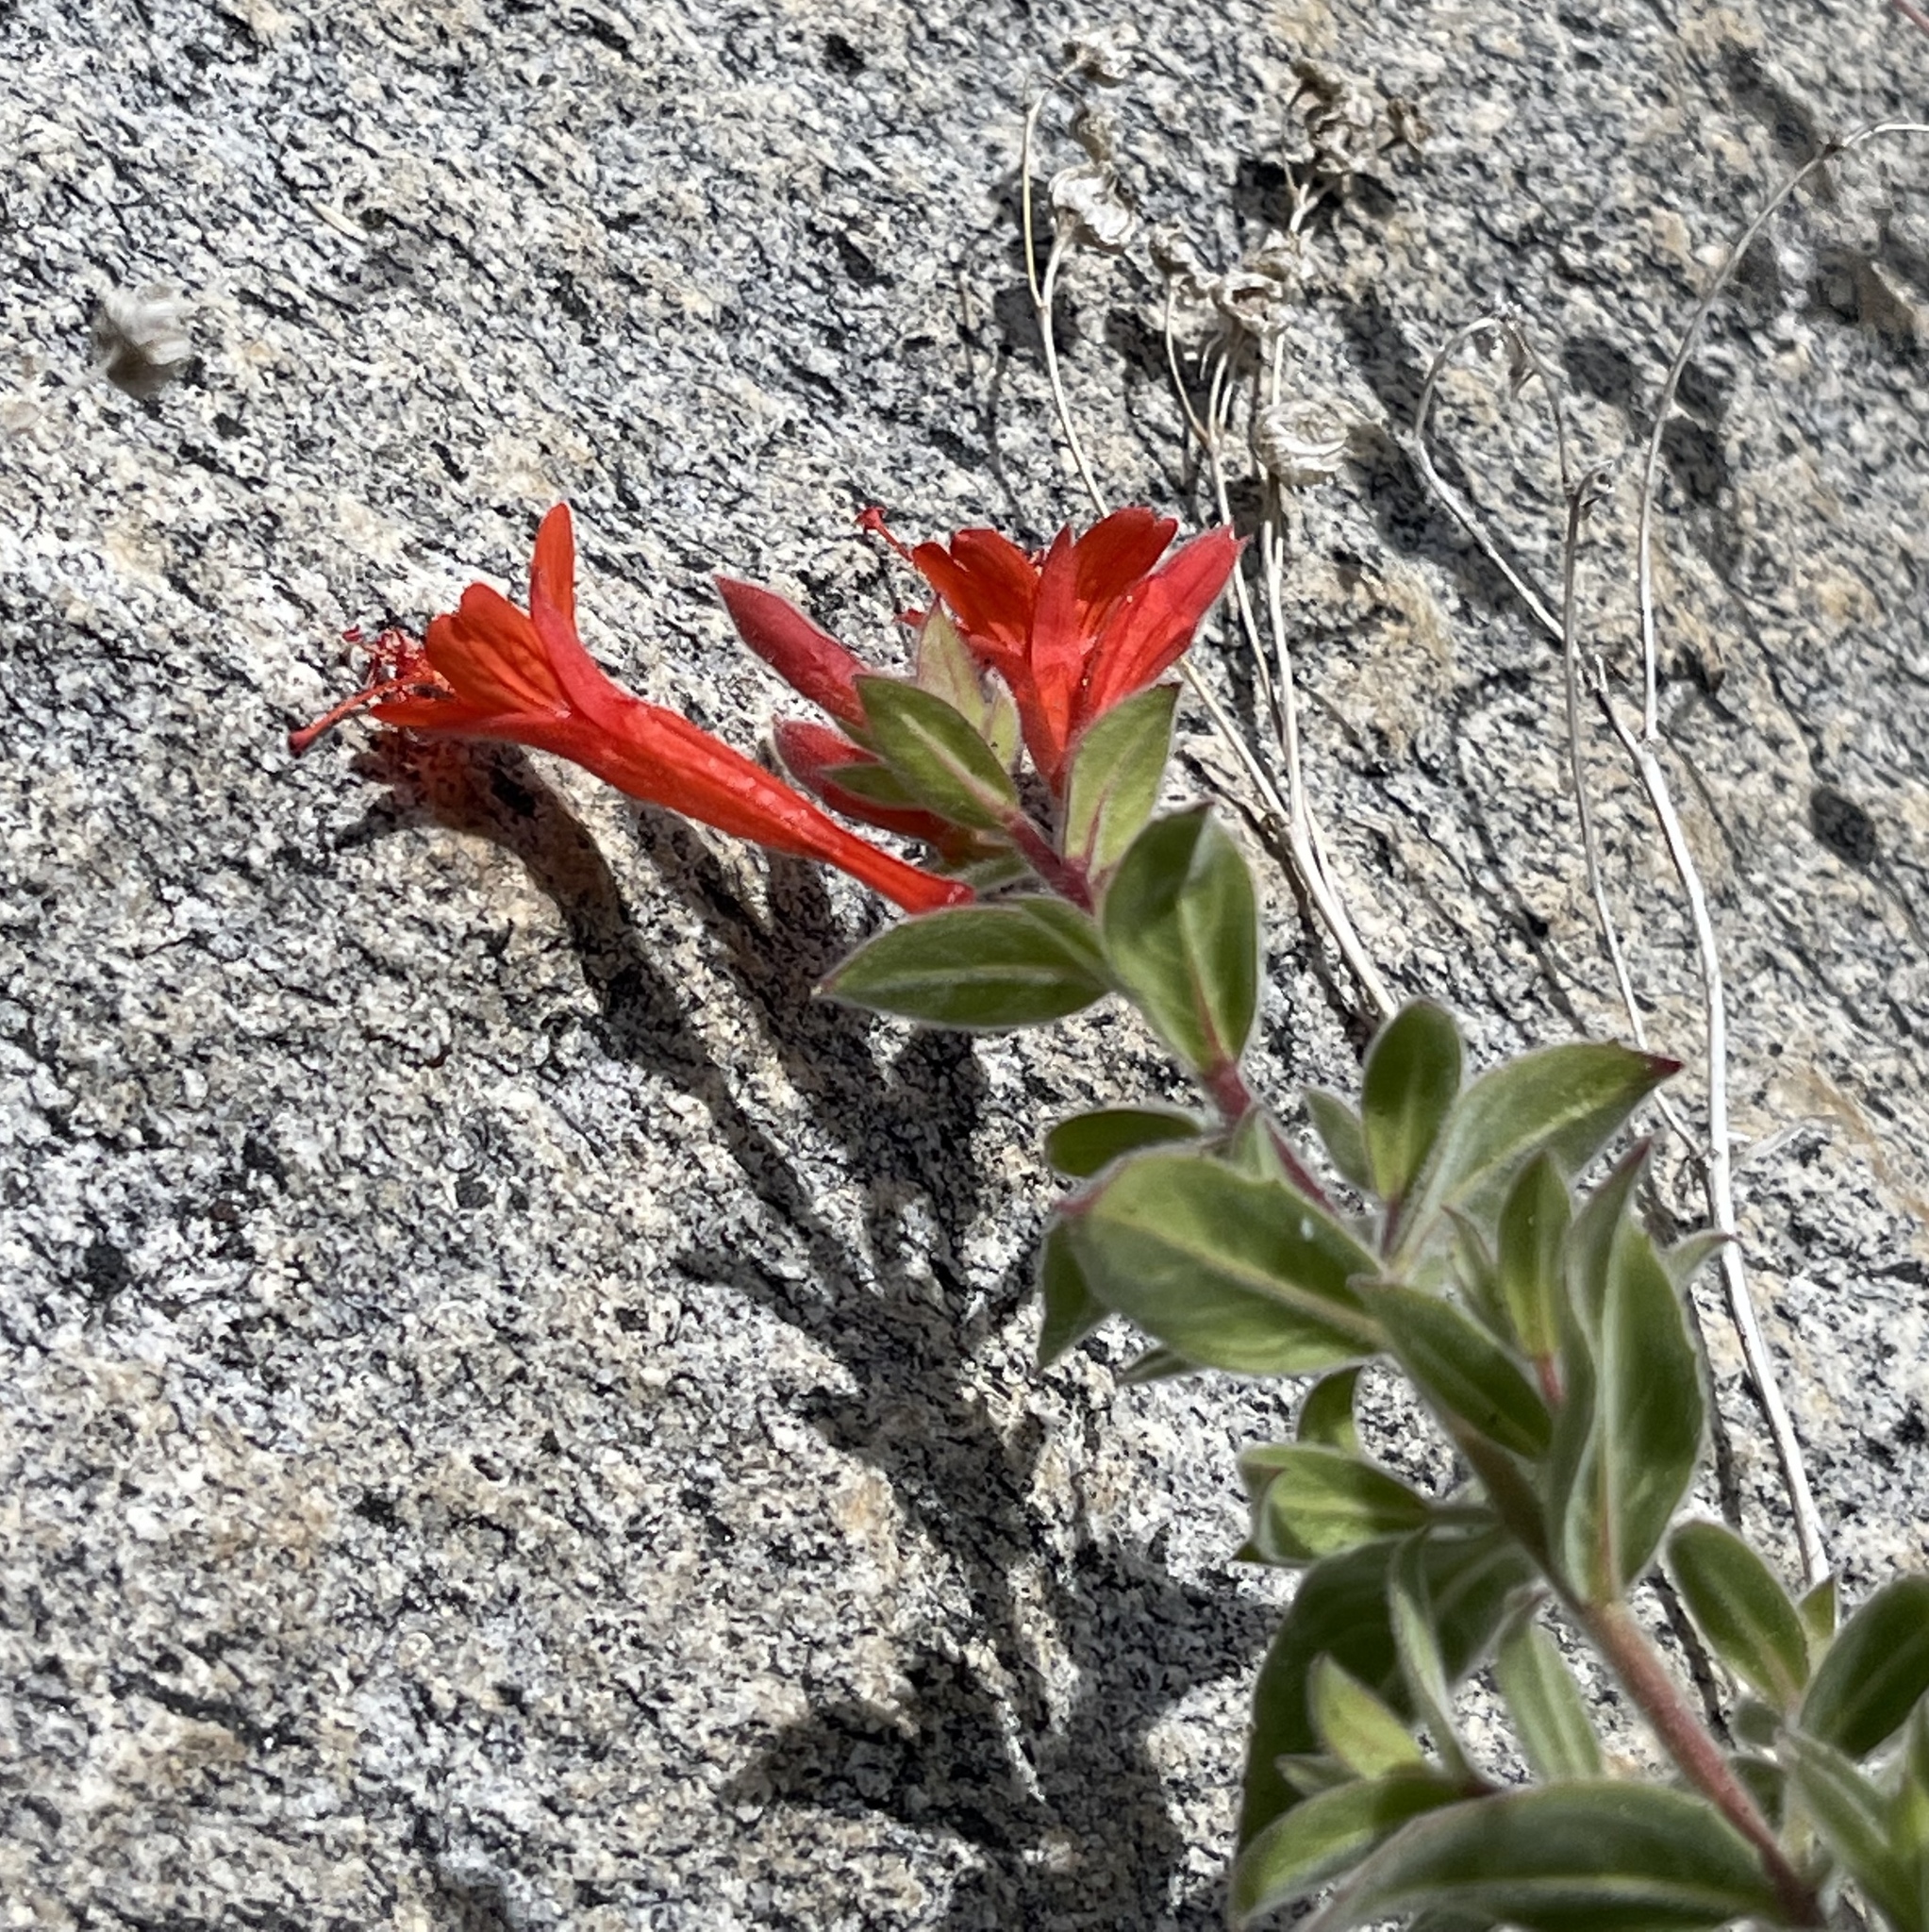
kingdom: Plantae
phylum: Tracheophyta
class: Magnoliopsida
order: Myrtales
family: Onagraceae
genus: Epilobium
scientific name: Epilobium canum
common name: California-fuchsia
